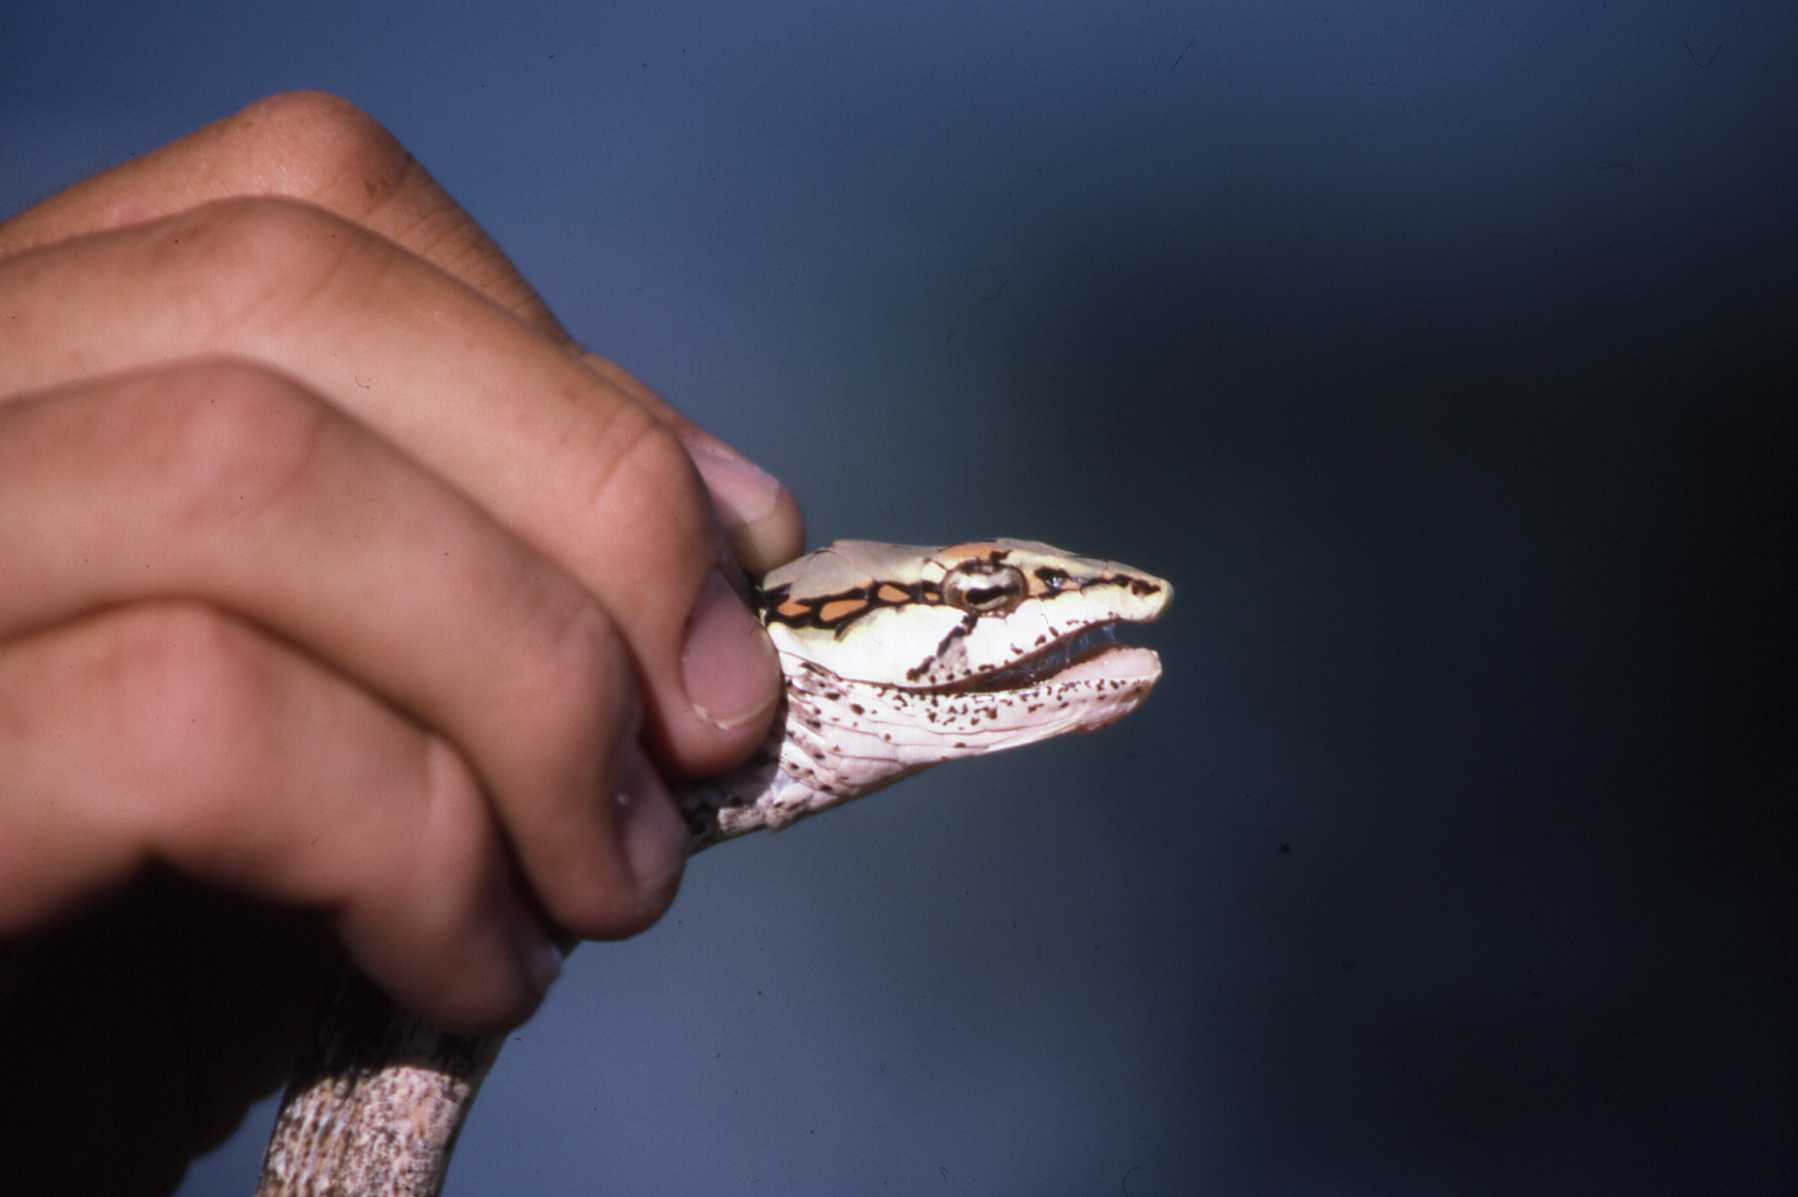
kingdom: Animalia
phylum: Chordata
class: Squamata
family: Colubridae
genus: Thelotornis
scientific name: Thelotornis capensis
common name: Savanna vine snake
